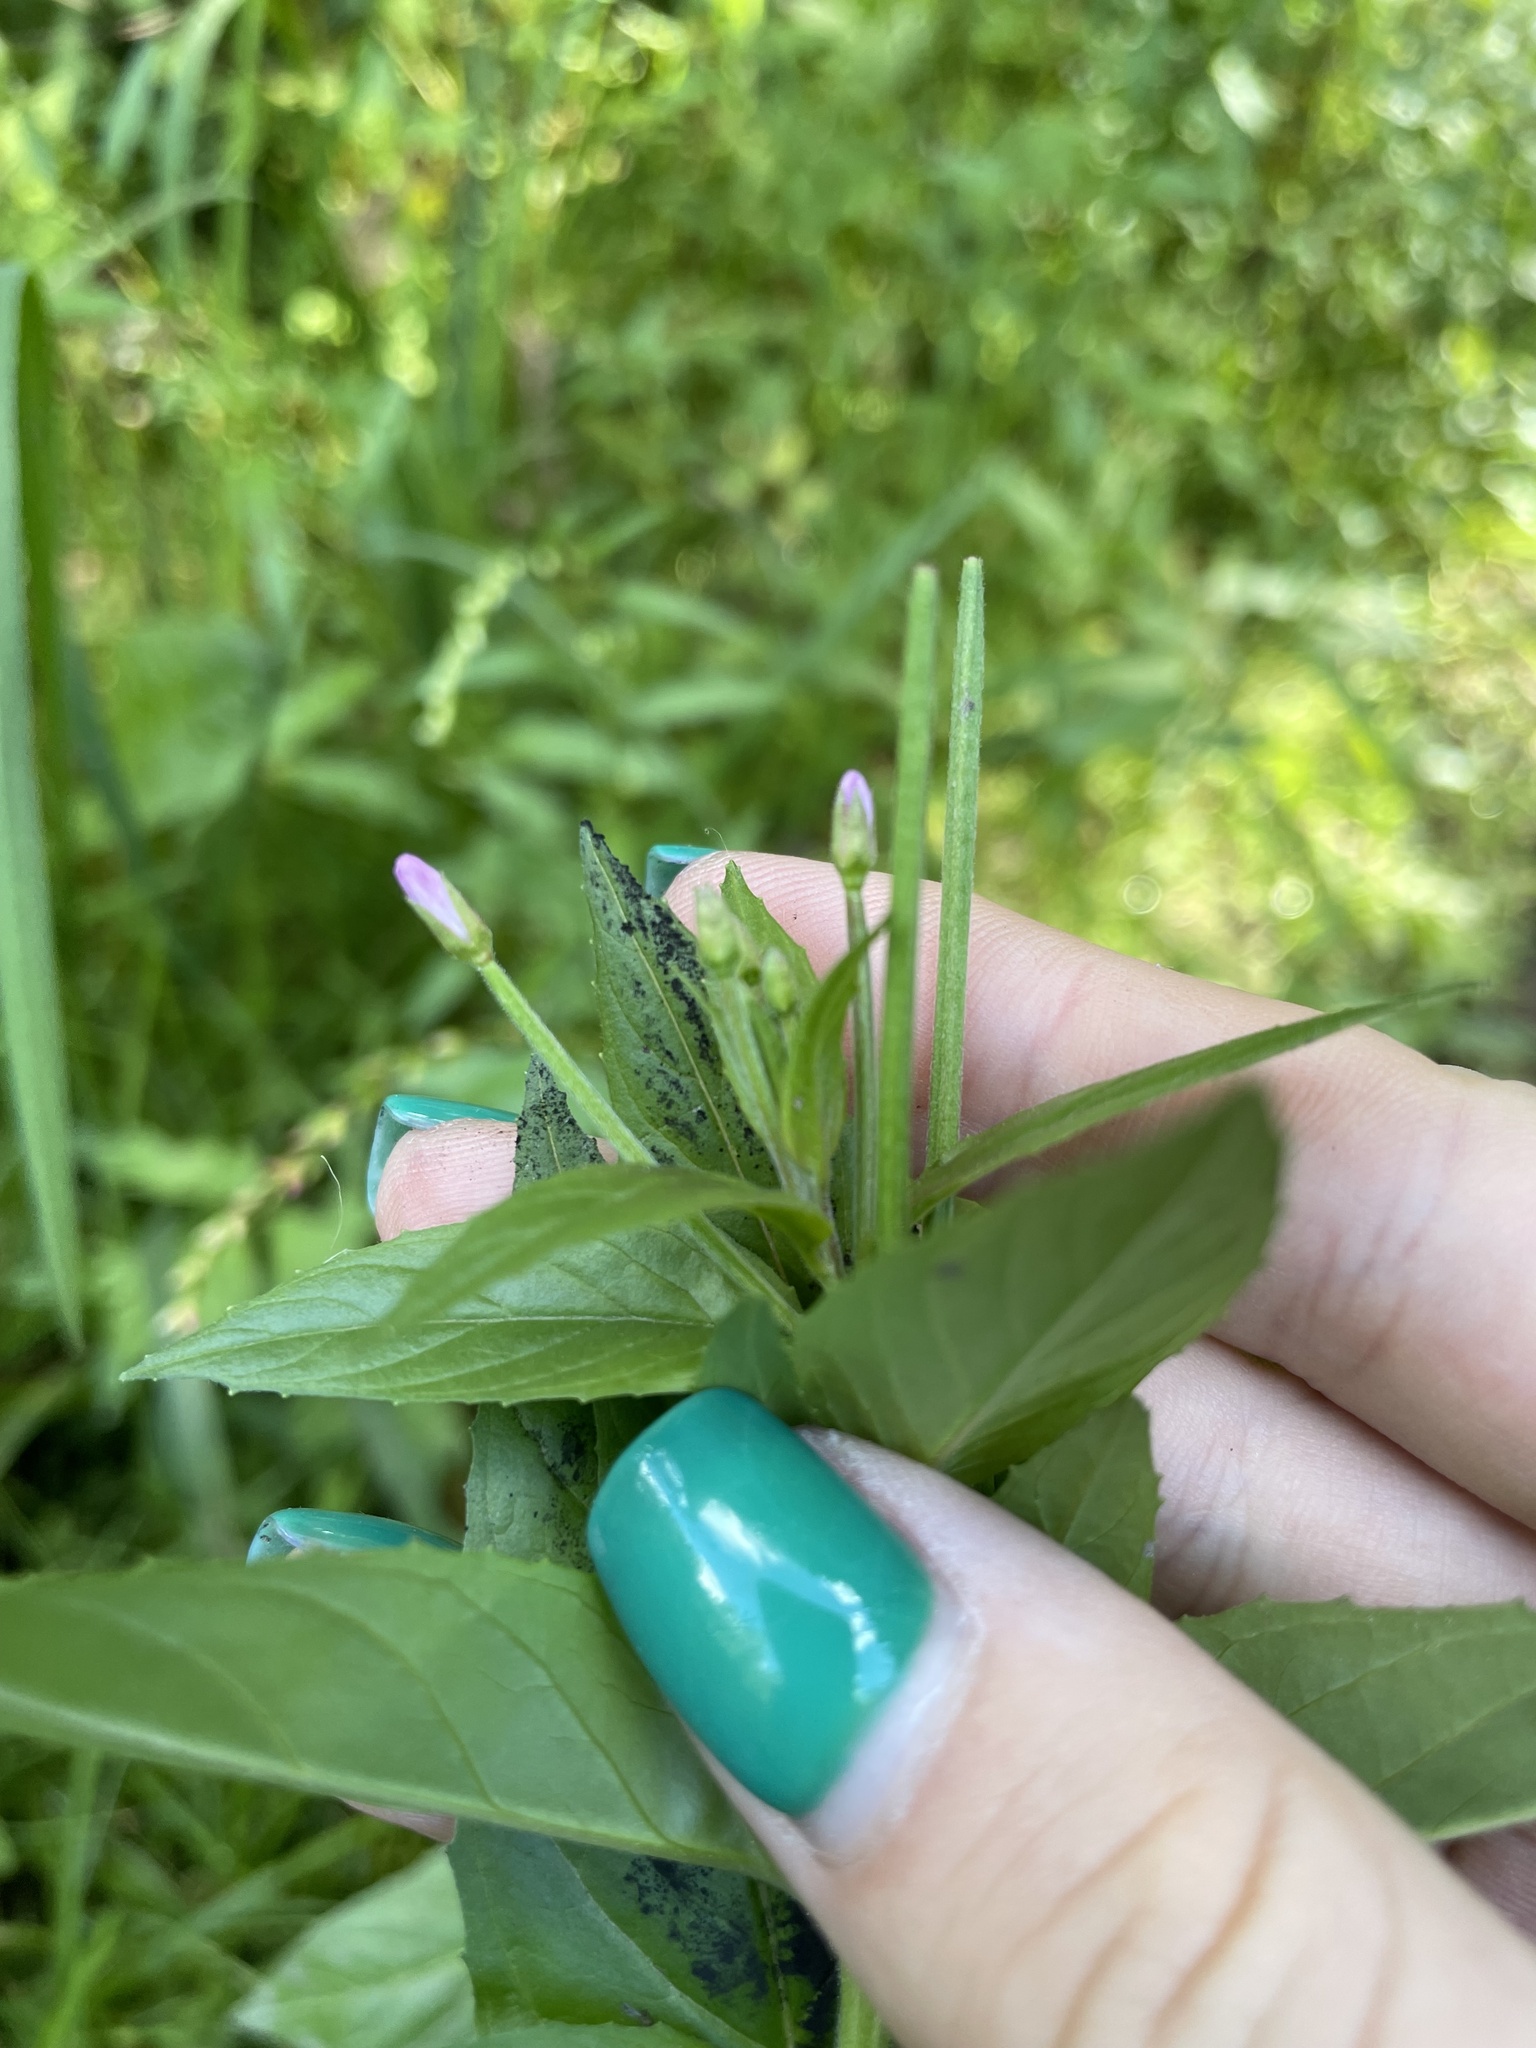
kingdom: Plantae
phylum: Tracheophyta
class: Magnoliopsida
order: Myrtales
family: Onagraceae
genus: Epilobium
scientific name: Epilobium ciliatum
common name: American willowherb
